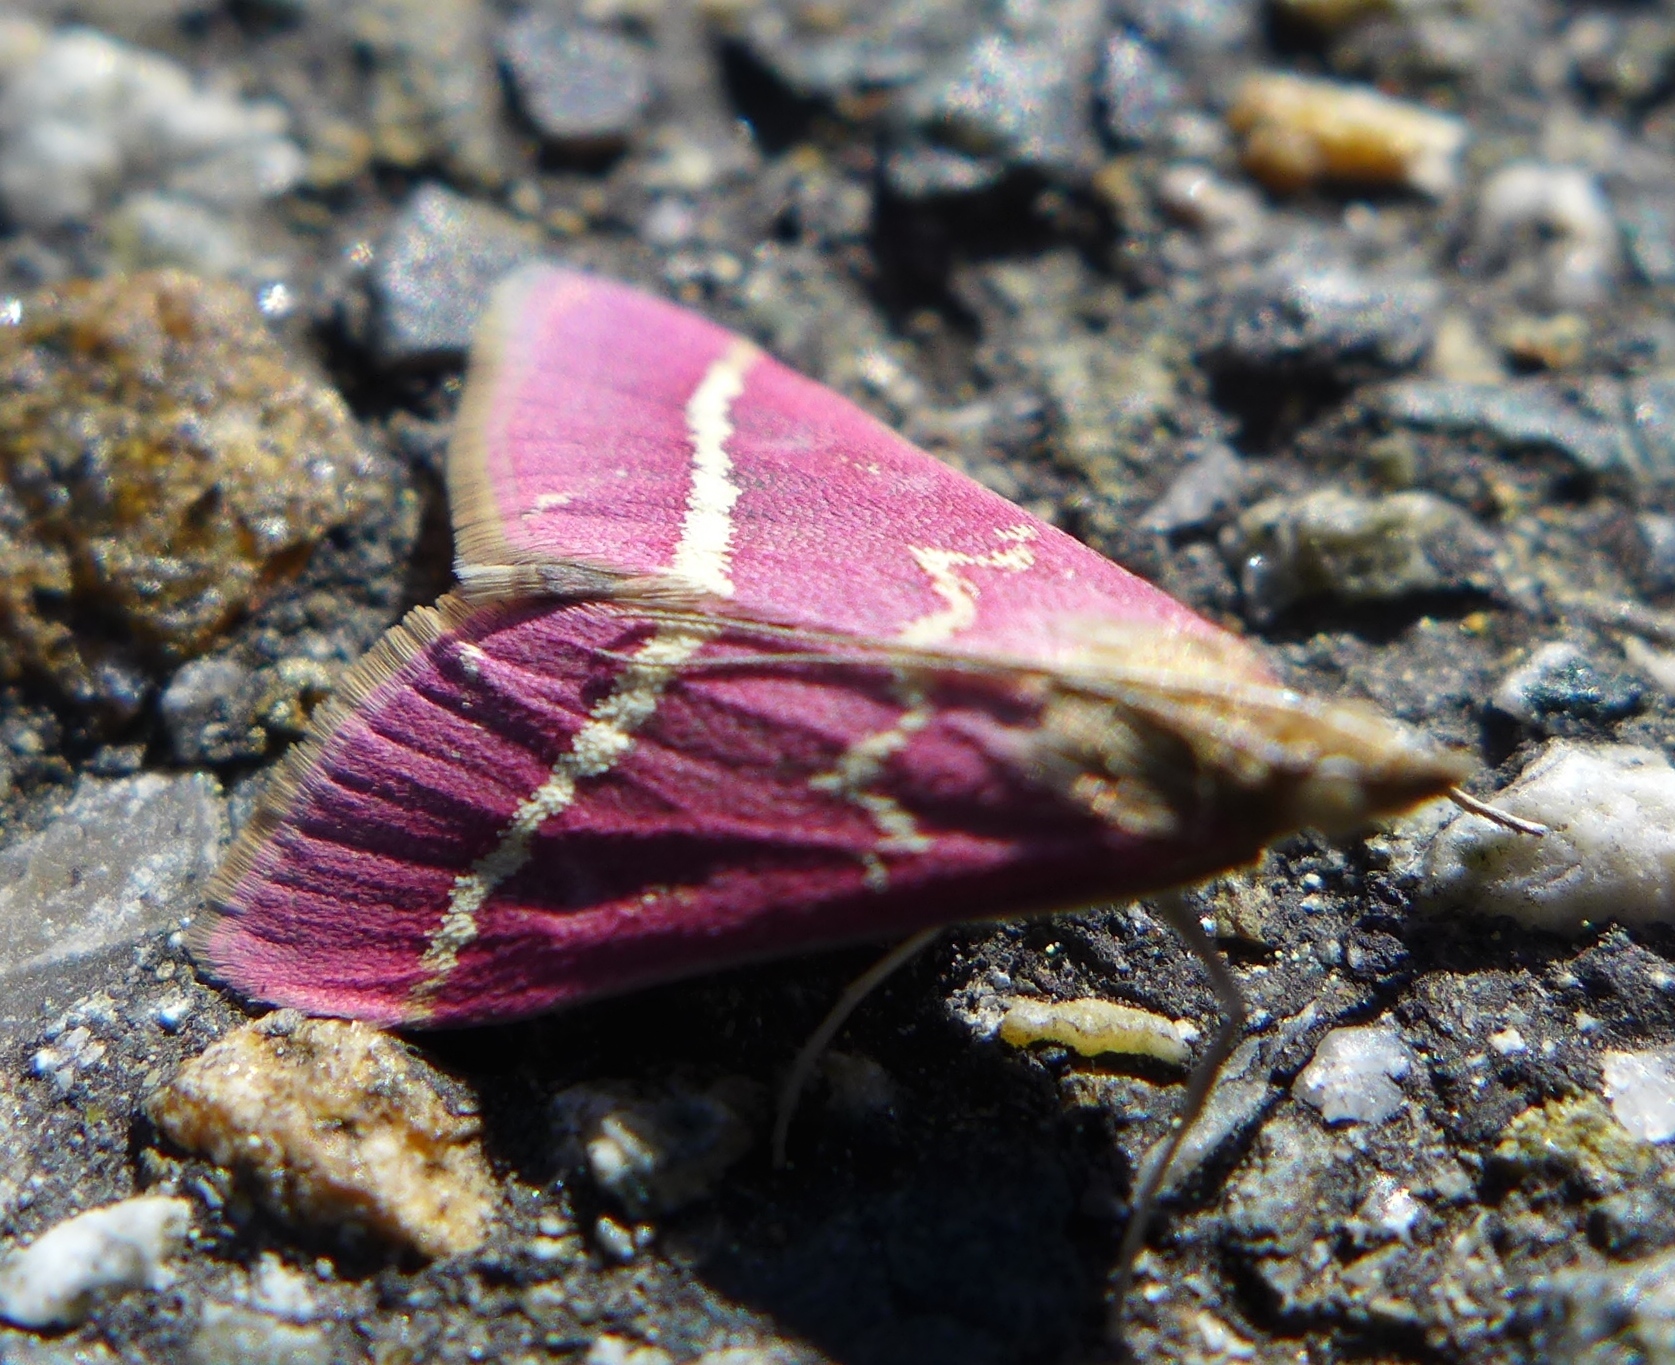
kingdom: Animalia
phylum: Arthropoda
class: Insecta
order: Lepidoptera
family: Crambidae
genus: Pyrausta
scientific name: Pyrausta volupialis
